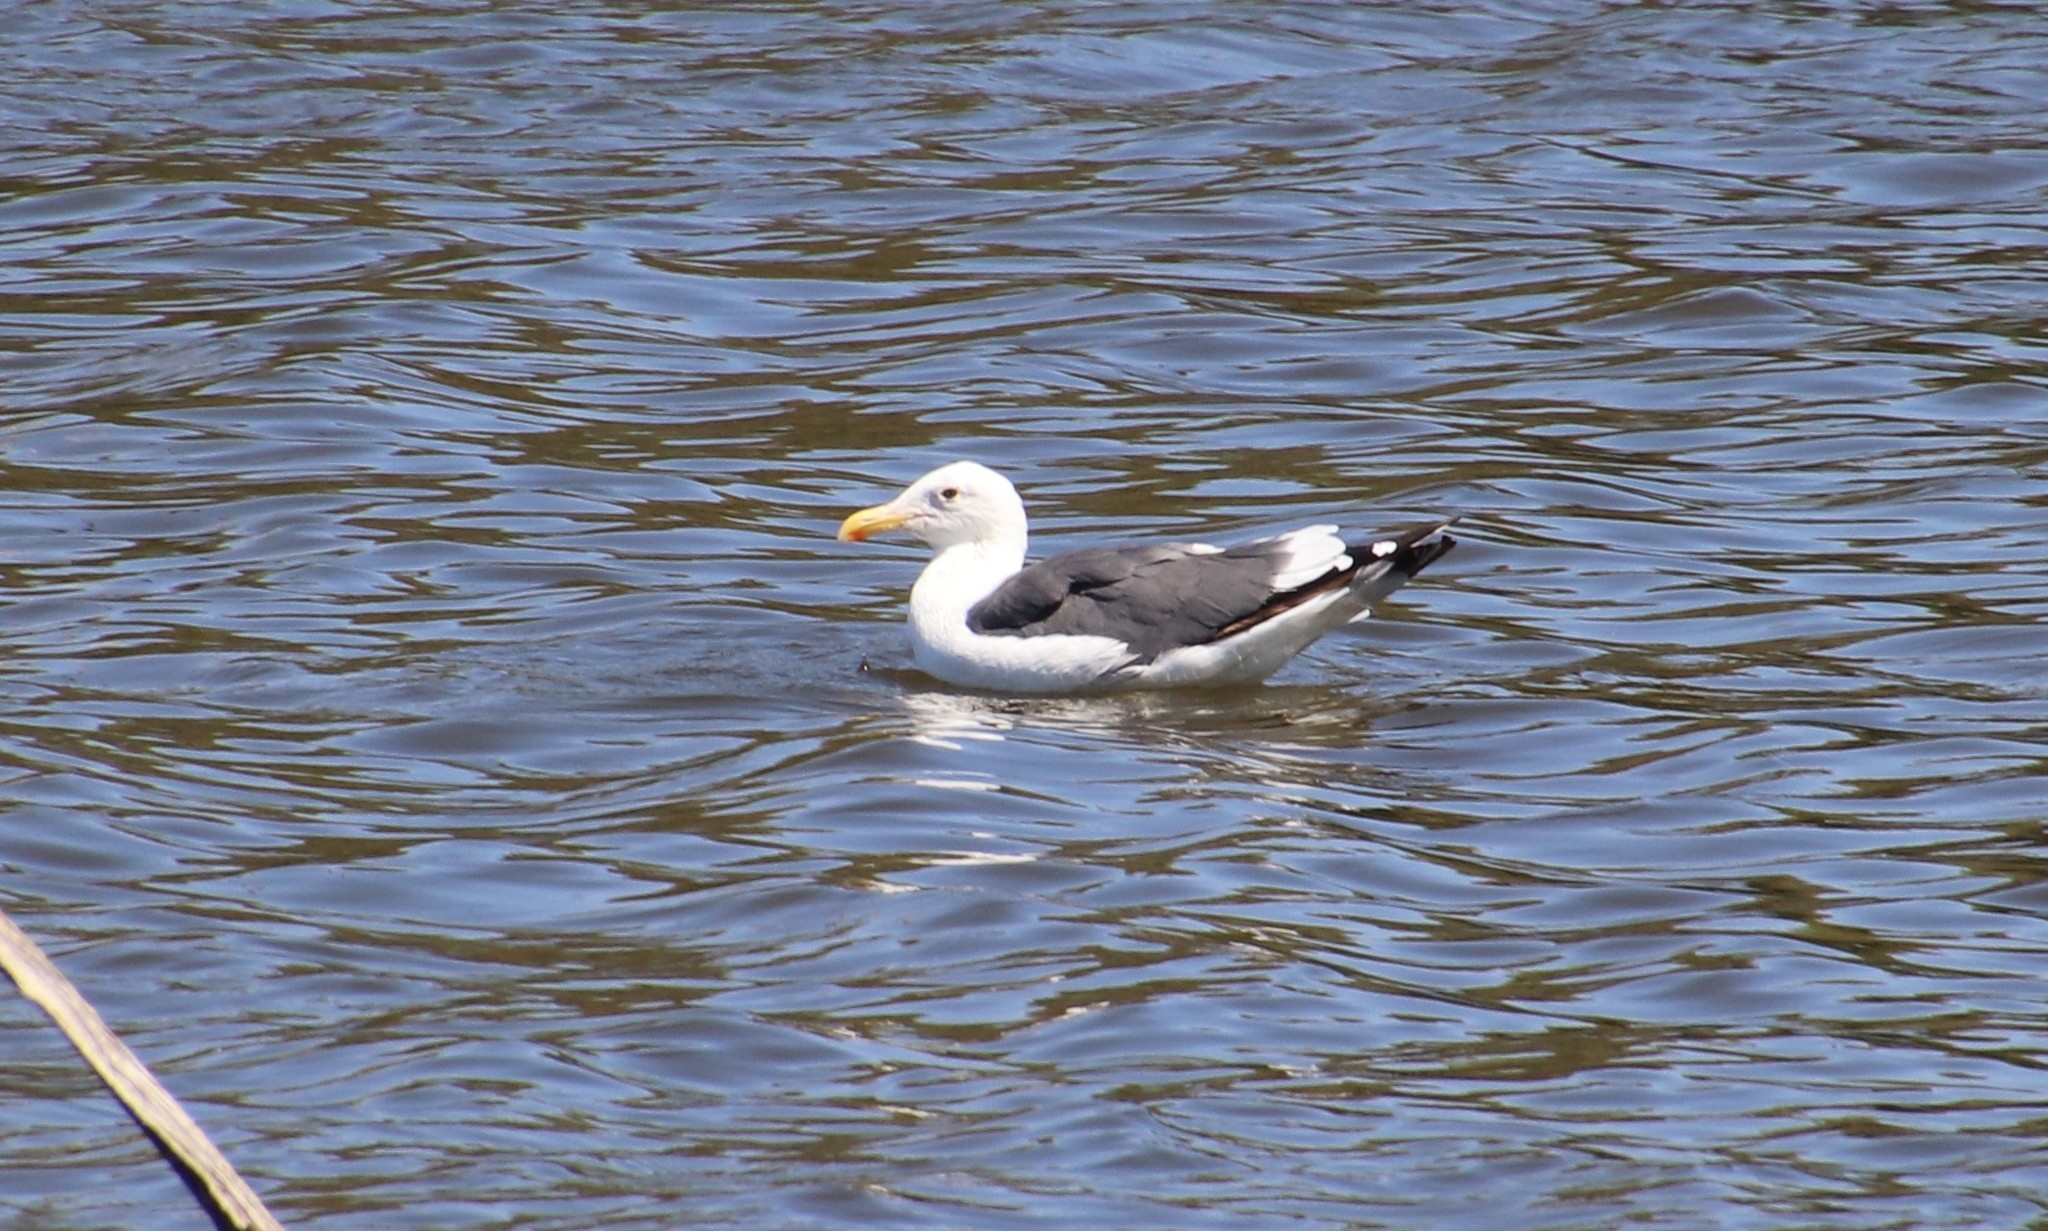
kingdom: Animalia
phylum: Chordata
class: Aves
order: Charadriiformes
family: Laridae
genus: Larus
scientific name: Larus occidentalis
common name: Western gull
